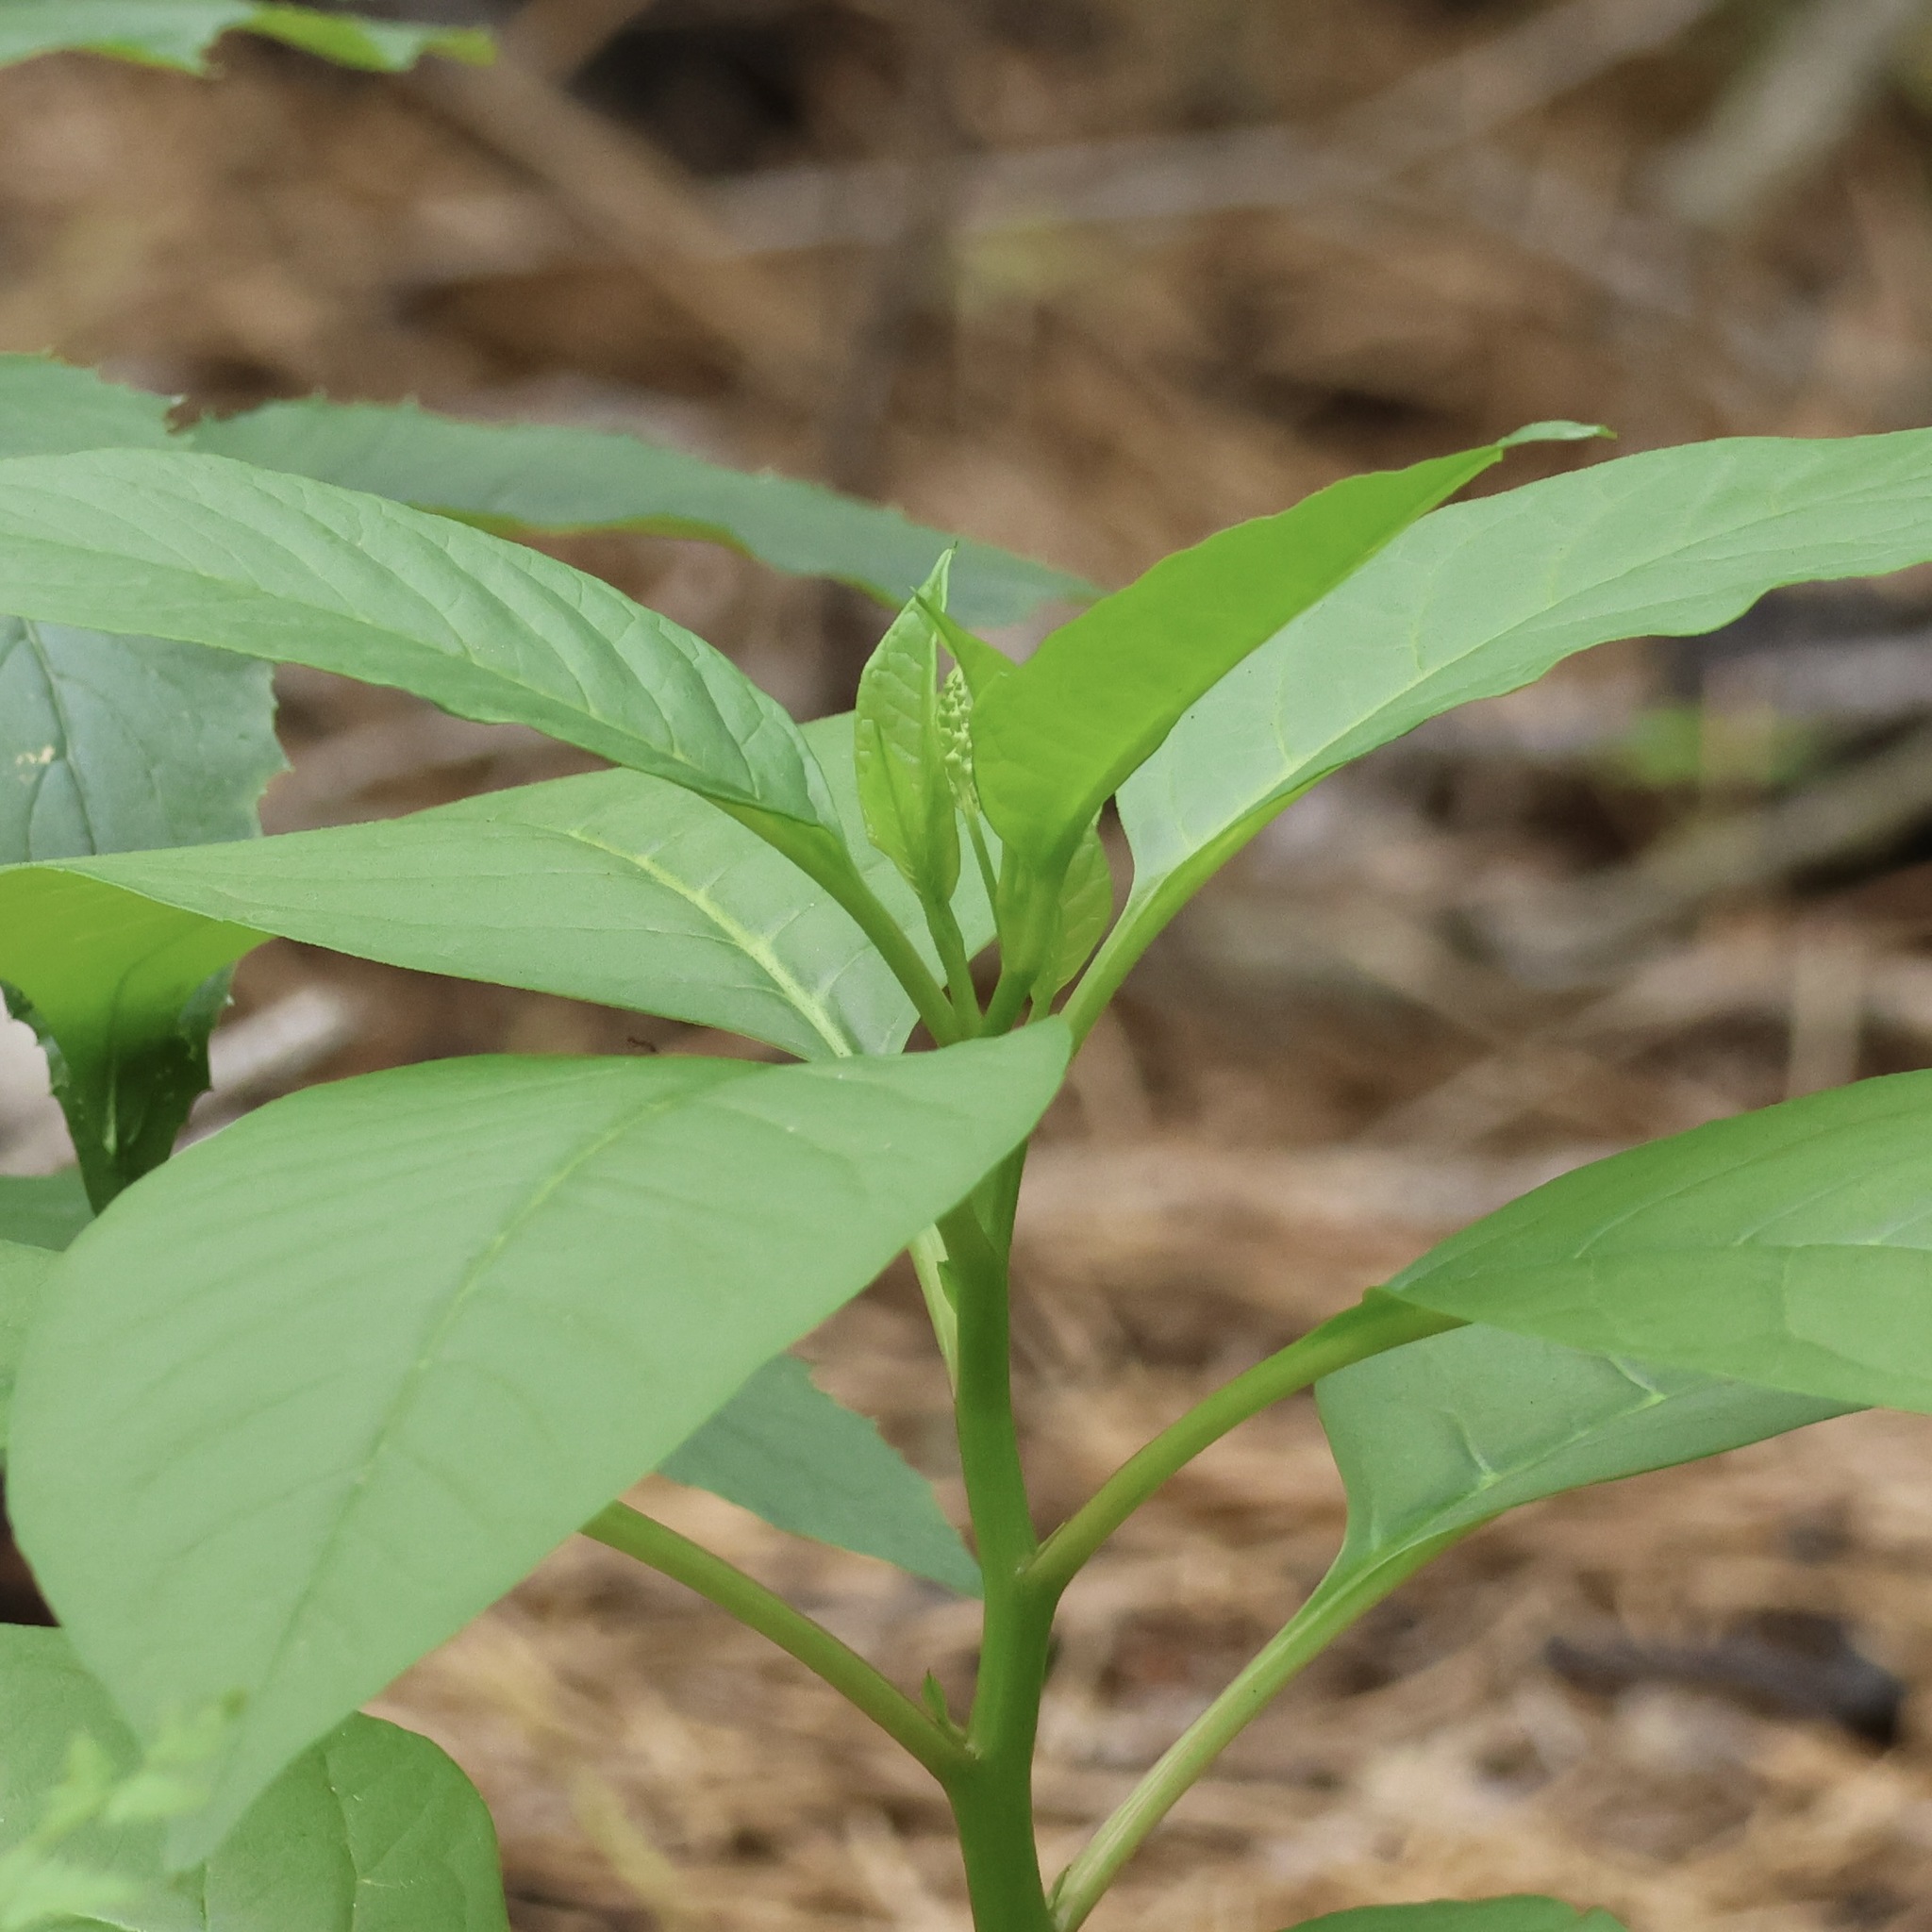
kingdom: Plantae
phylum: Tracheophyta
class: Magnoliopsida
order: Caryophyllales
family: Phytolaccaceae
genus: Phytolacca
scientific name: Phytolacca americana
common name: American pokeweed
